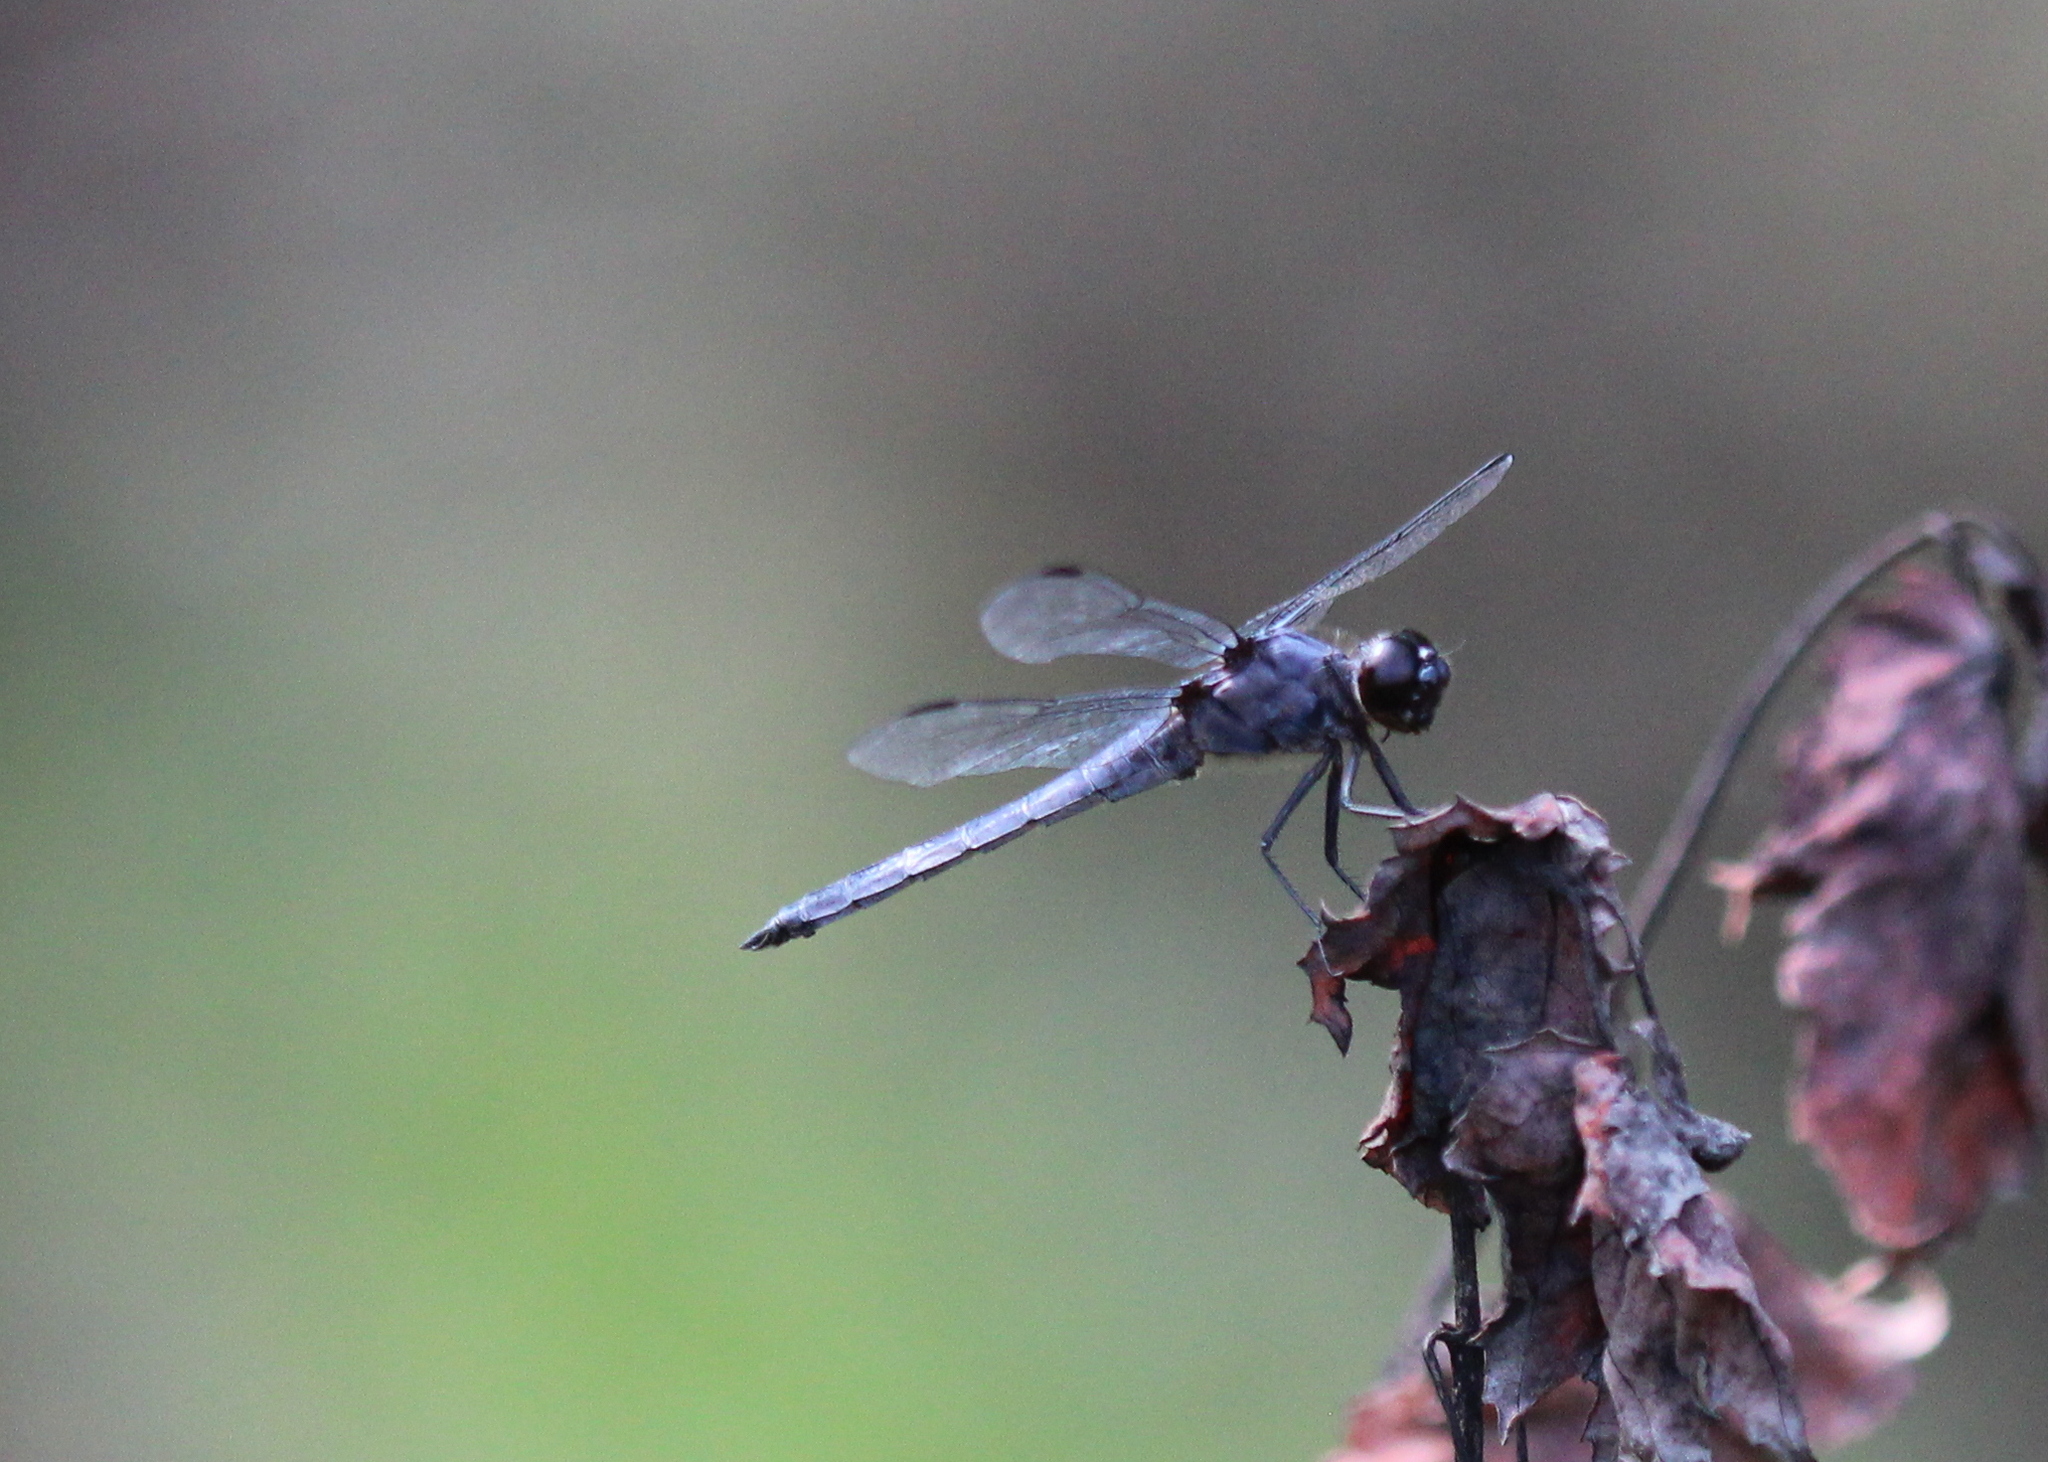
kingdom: Animalia
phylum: Arthropoda
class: Insecta
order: Odonata
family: Libellulidae
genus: Libellula
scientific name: Libellula incesta
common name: Slaty skimmer
